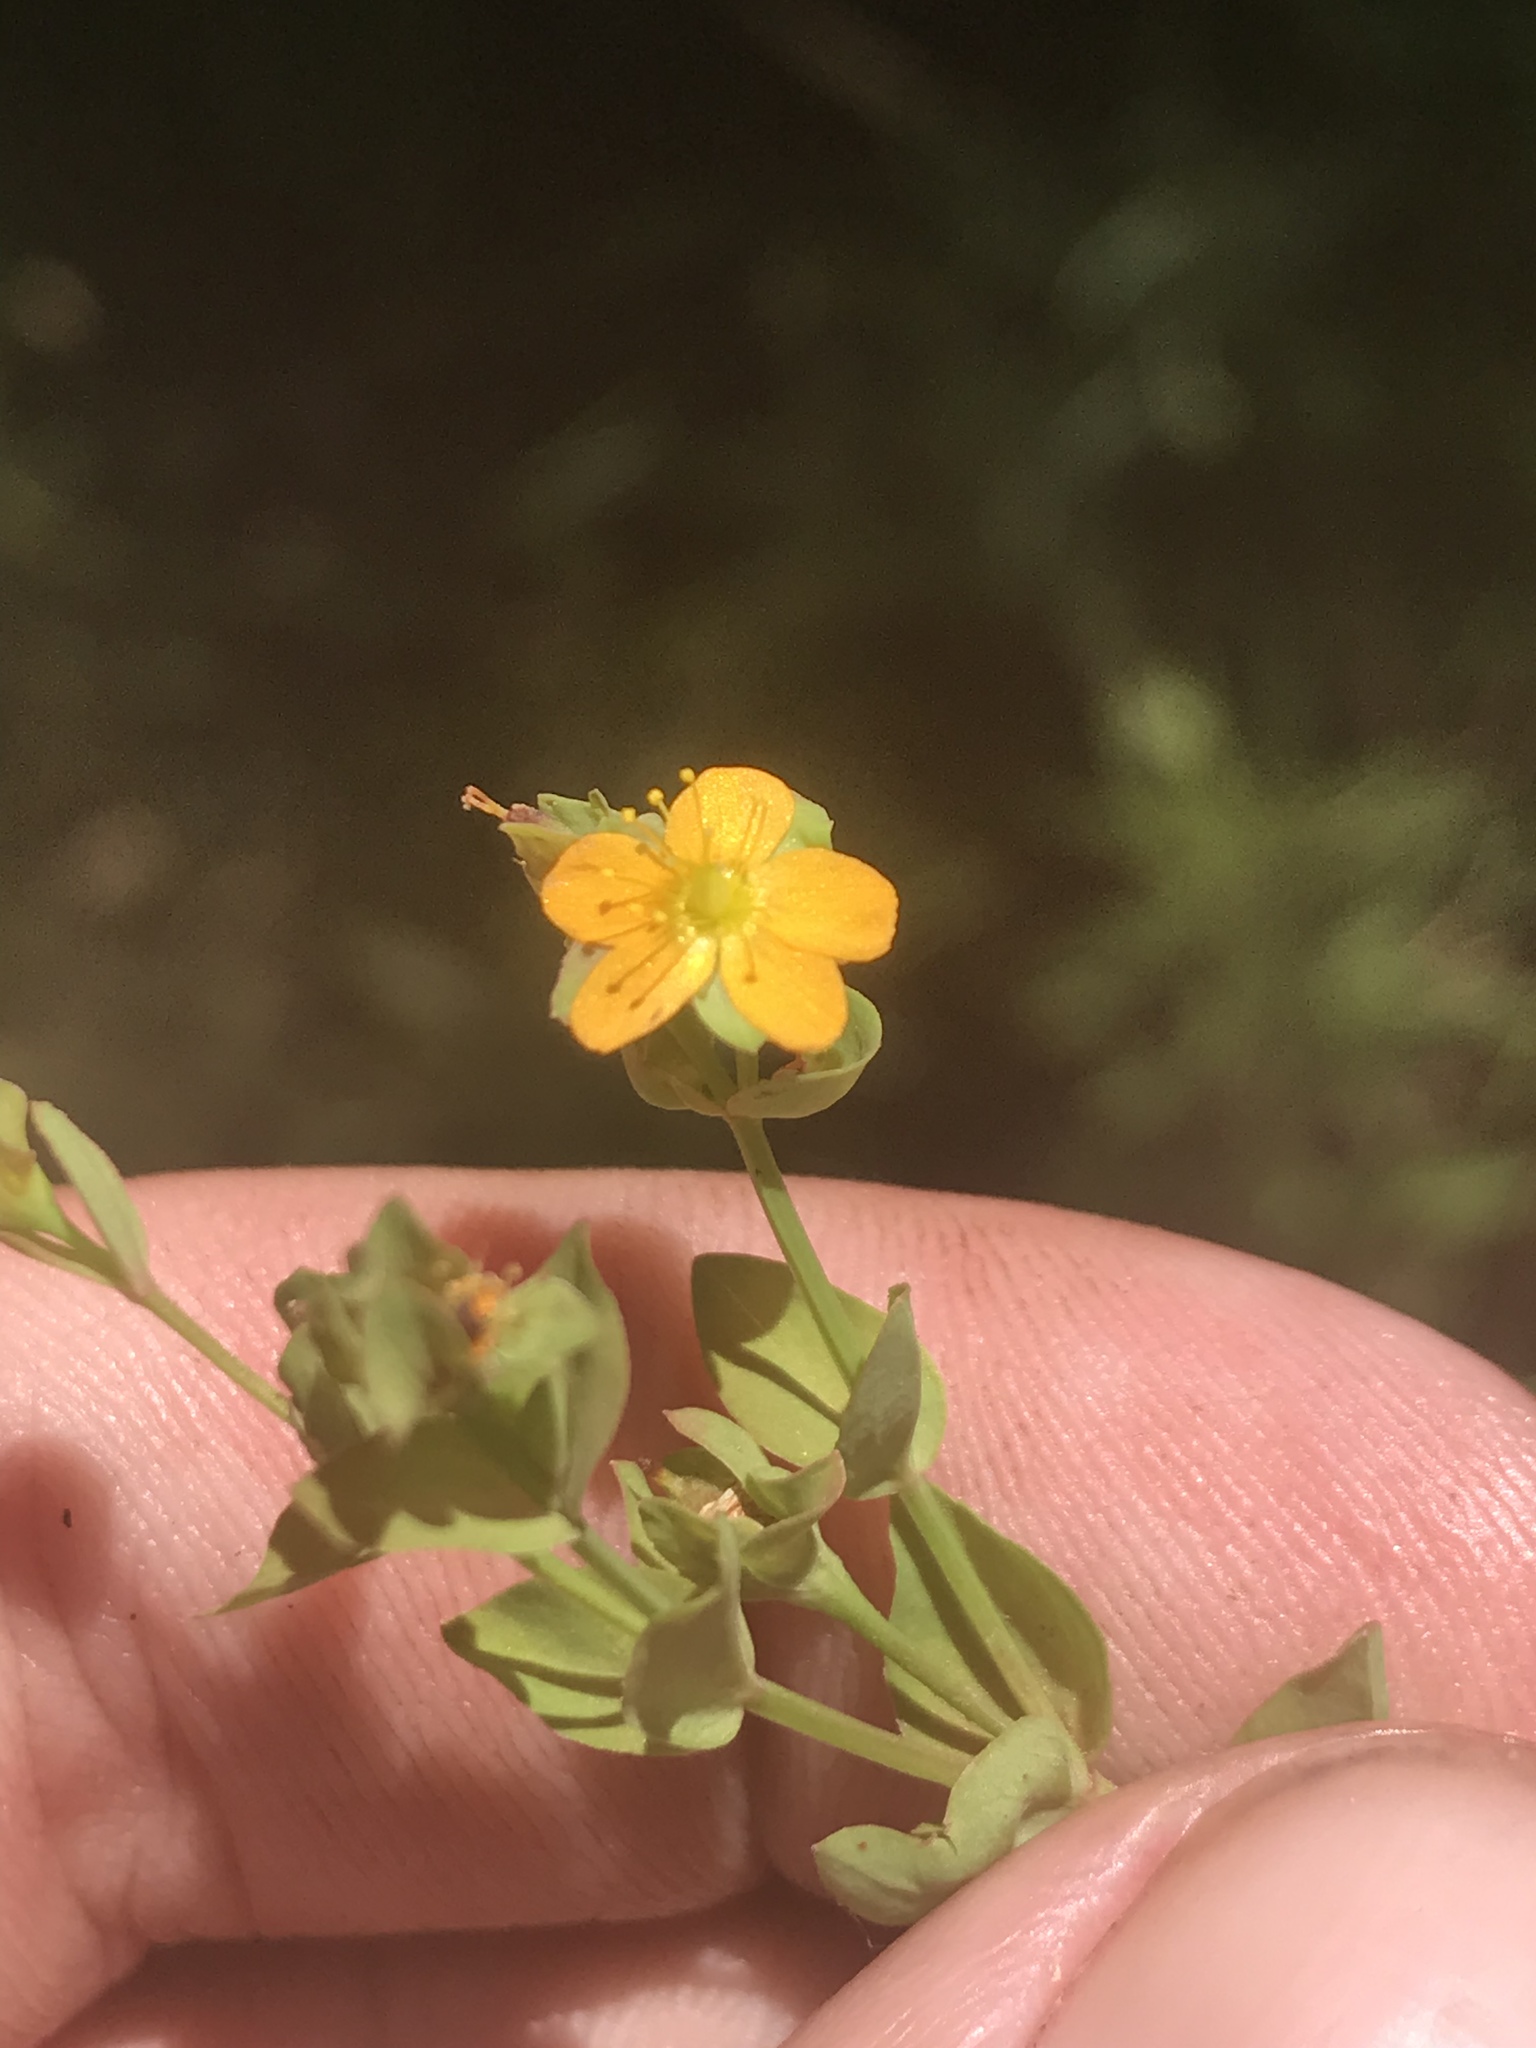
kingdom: Plantae
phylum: Tracheophyta
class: Magnoliopsida
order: Malpighiales
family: Hypericaceae
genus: Hypericum
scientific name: Hypericum anagalloides
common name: Bog st. john's-wort
